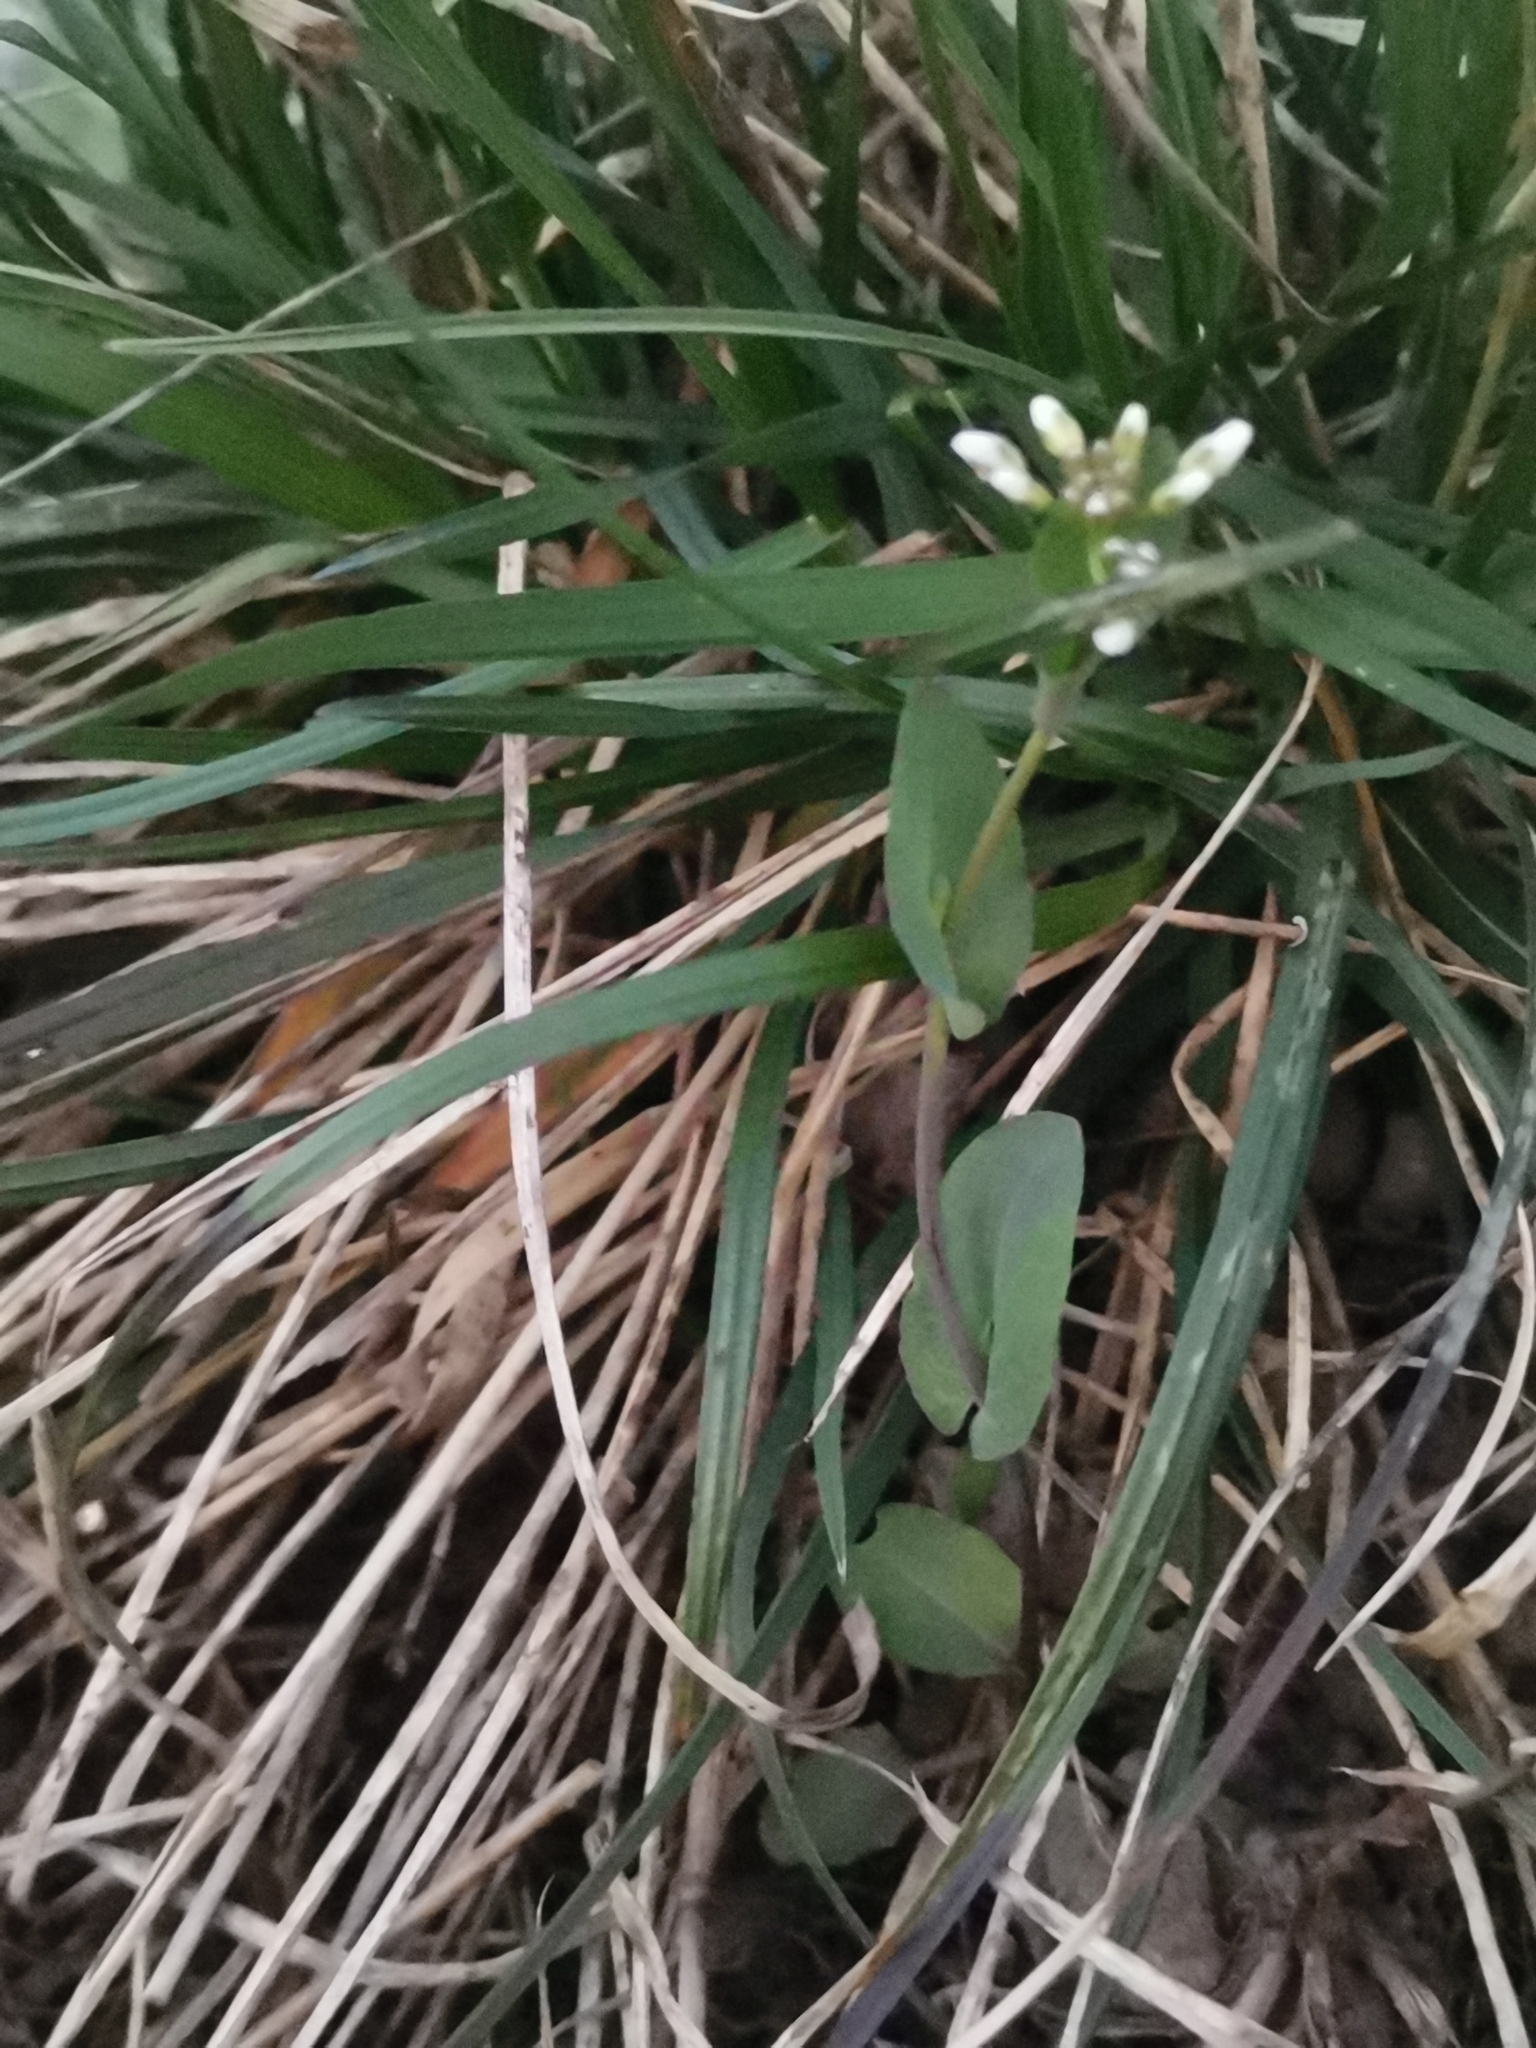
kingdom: Plantae
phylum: Tracheophyta
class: Magnoliopsida
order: Brassicales
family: Brassicaceae
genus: Noccaea
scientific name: Noccaea perfoliata
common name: Perfoliate pennycress
